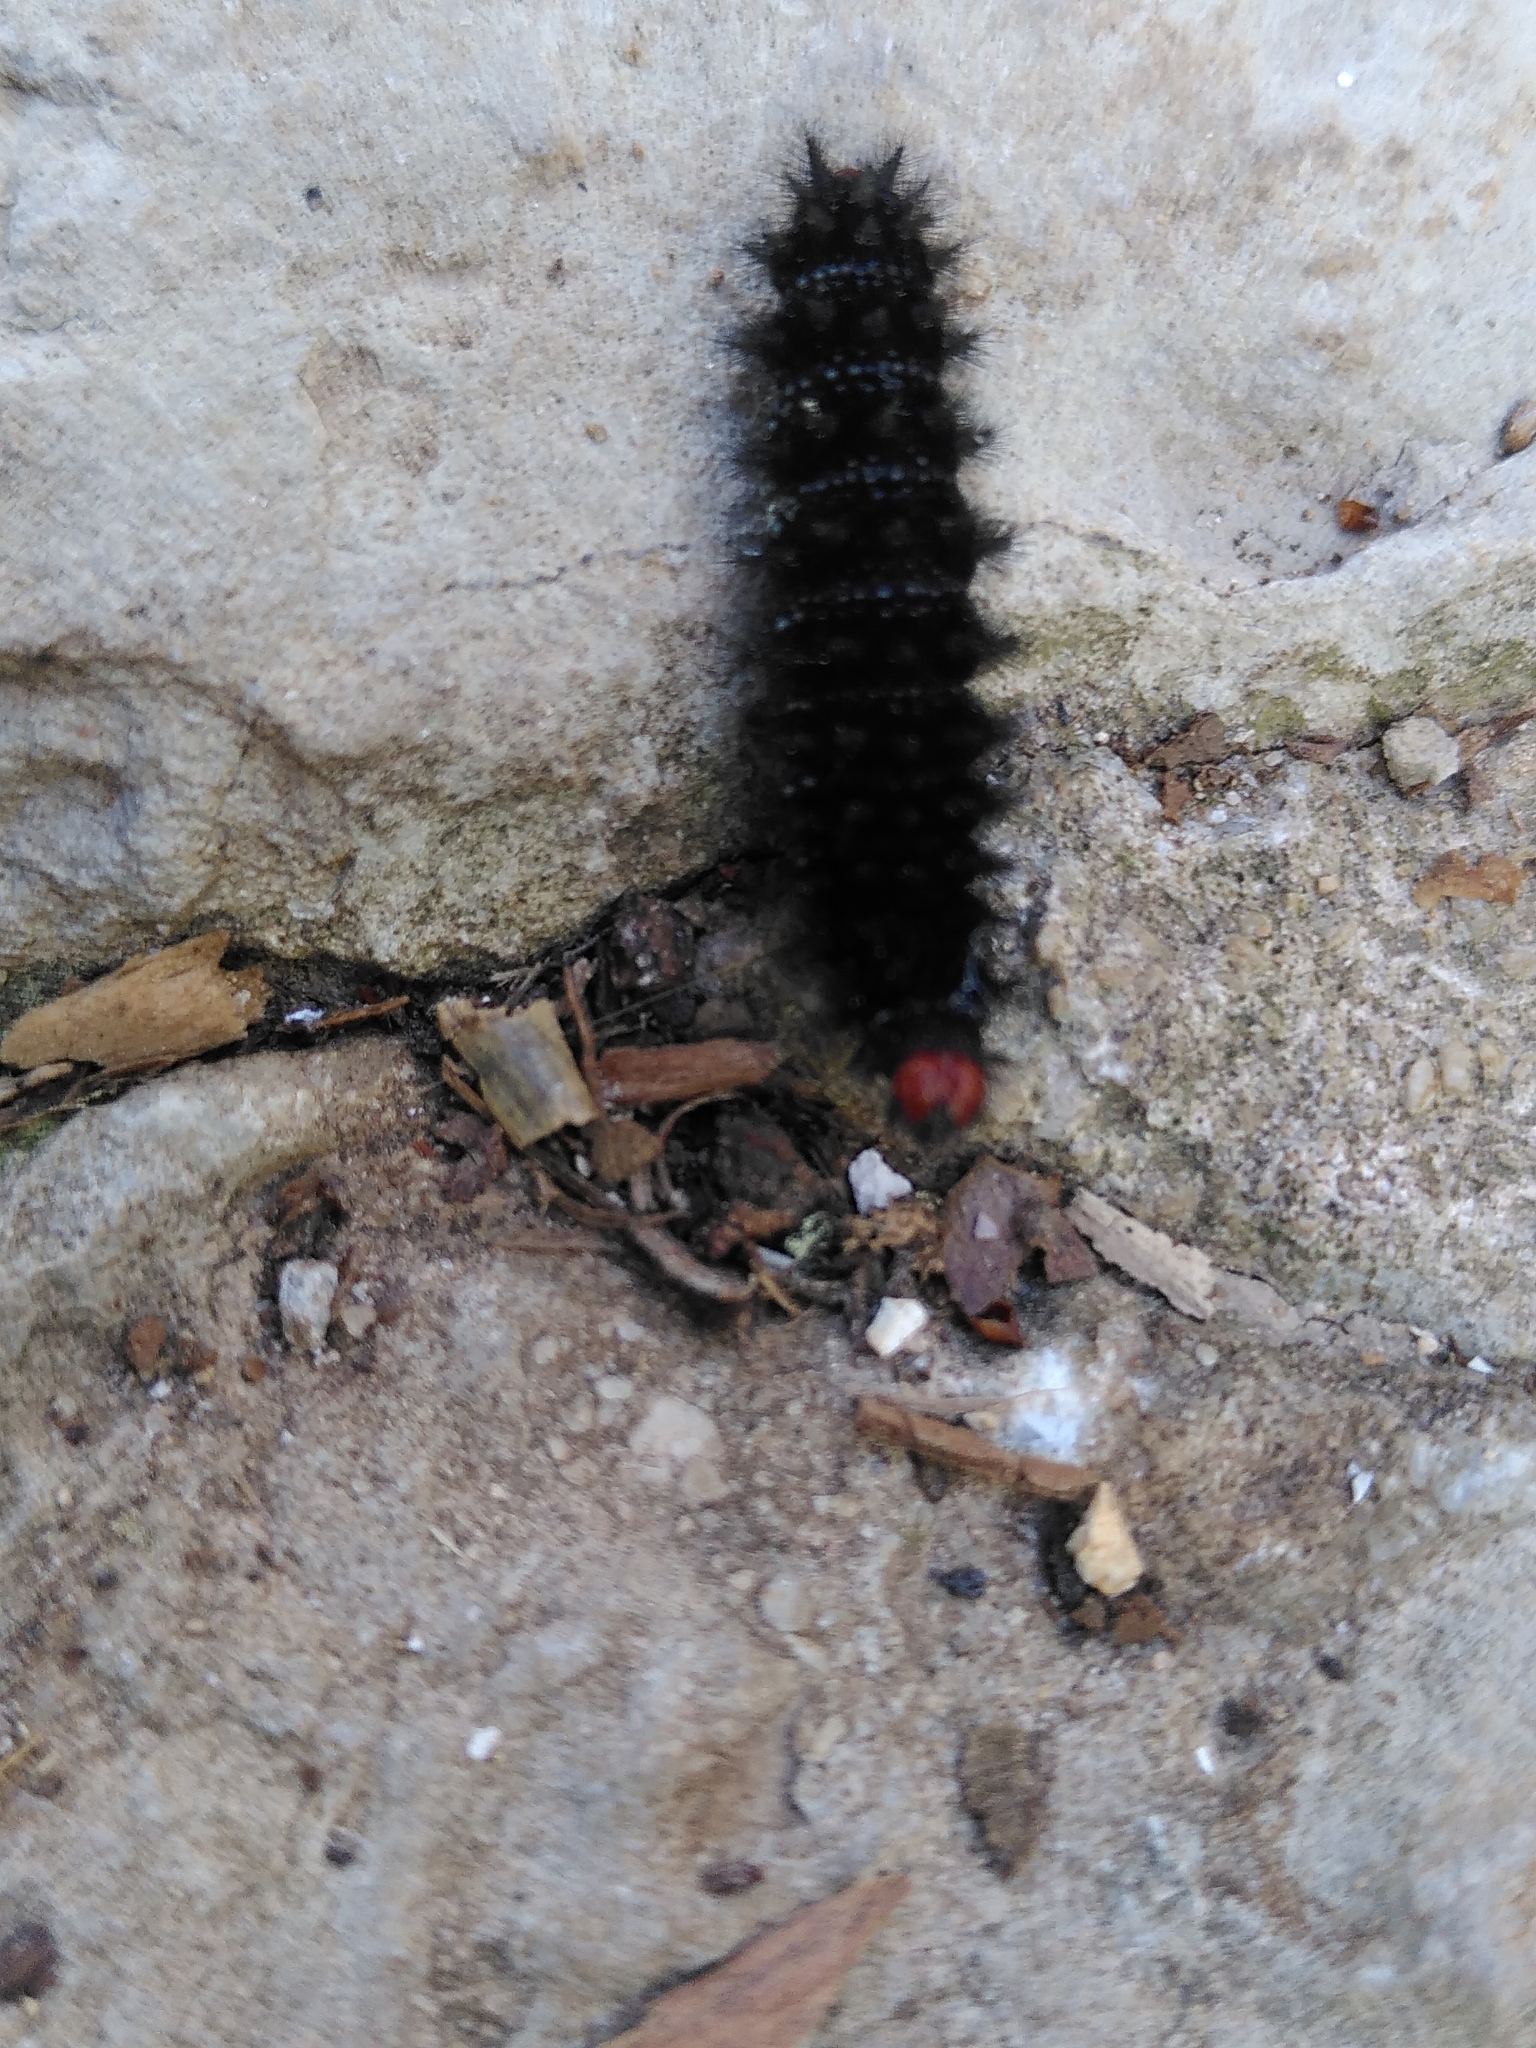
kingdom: Animalia
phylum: Arthropoda
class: Insecta
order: Lepidoptera
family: Nymphalidae
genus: Melitaea
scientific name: Melitaea cinxia
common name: Glanville fritillary
